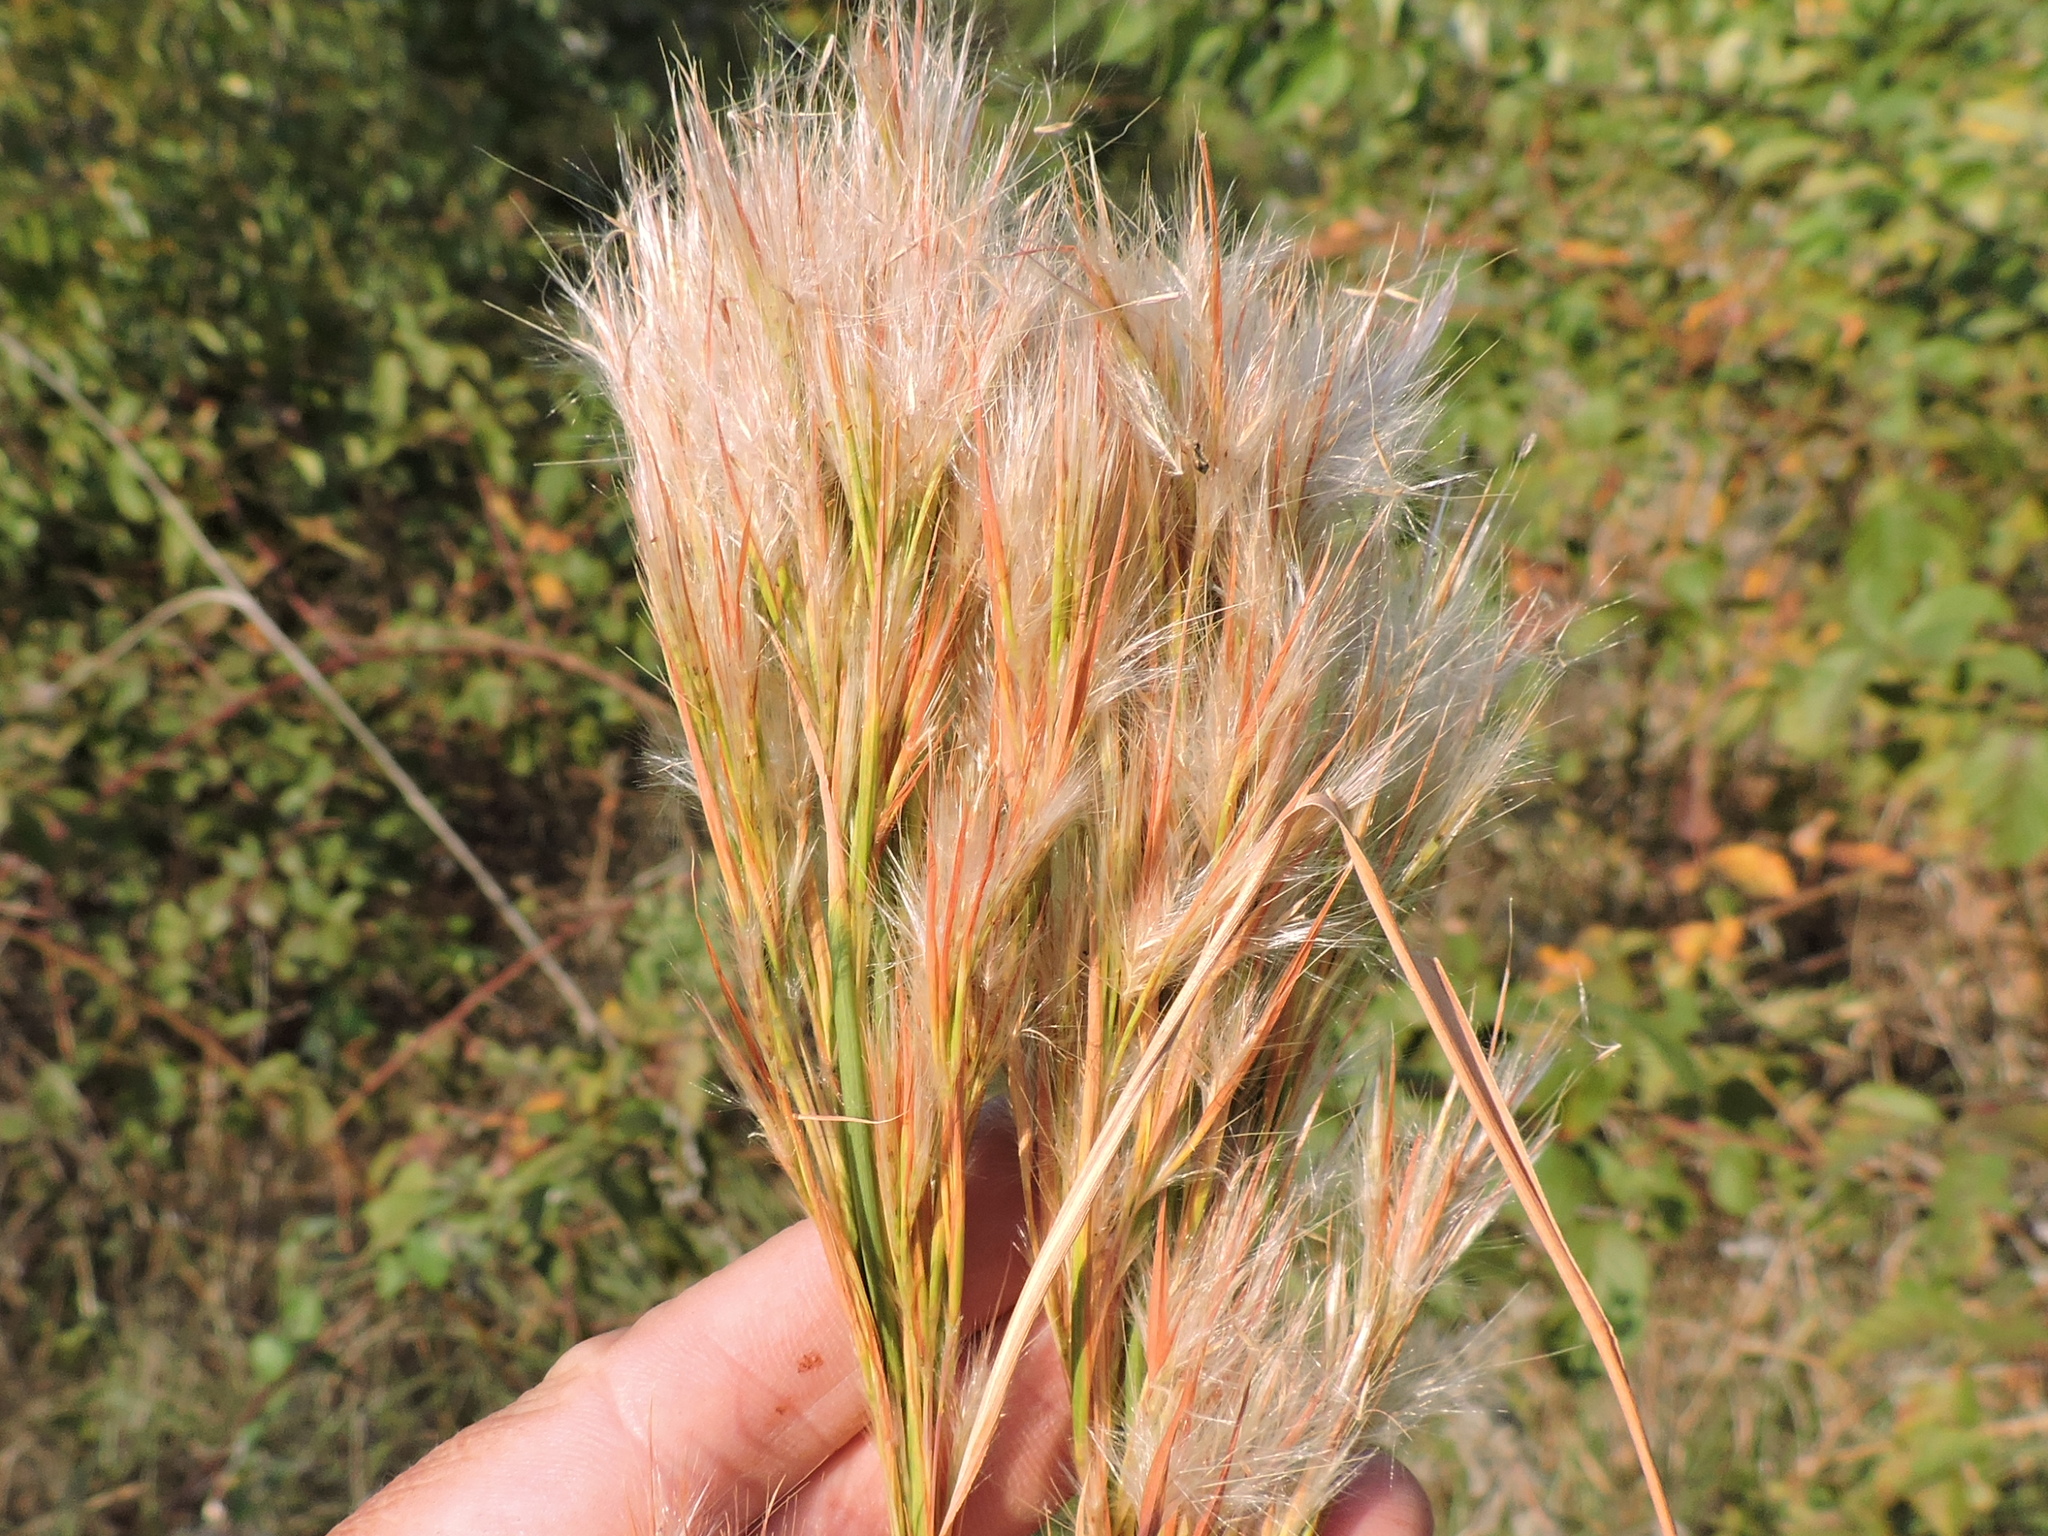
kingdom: Plantae
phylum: Tracheophyta
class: Liliopsida
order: Poales
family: Poaceae
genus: Andropogon
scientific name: Andropogon tenuispatheus
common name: Bushy bluestem
